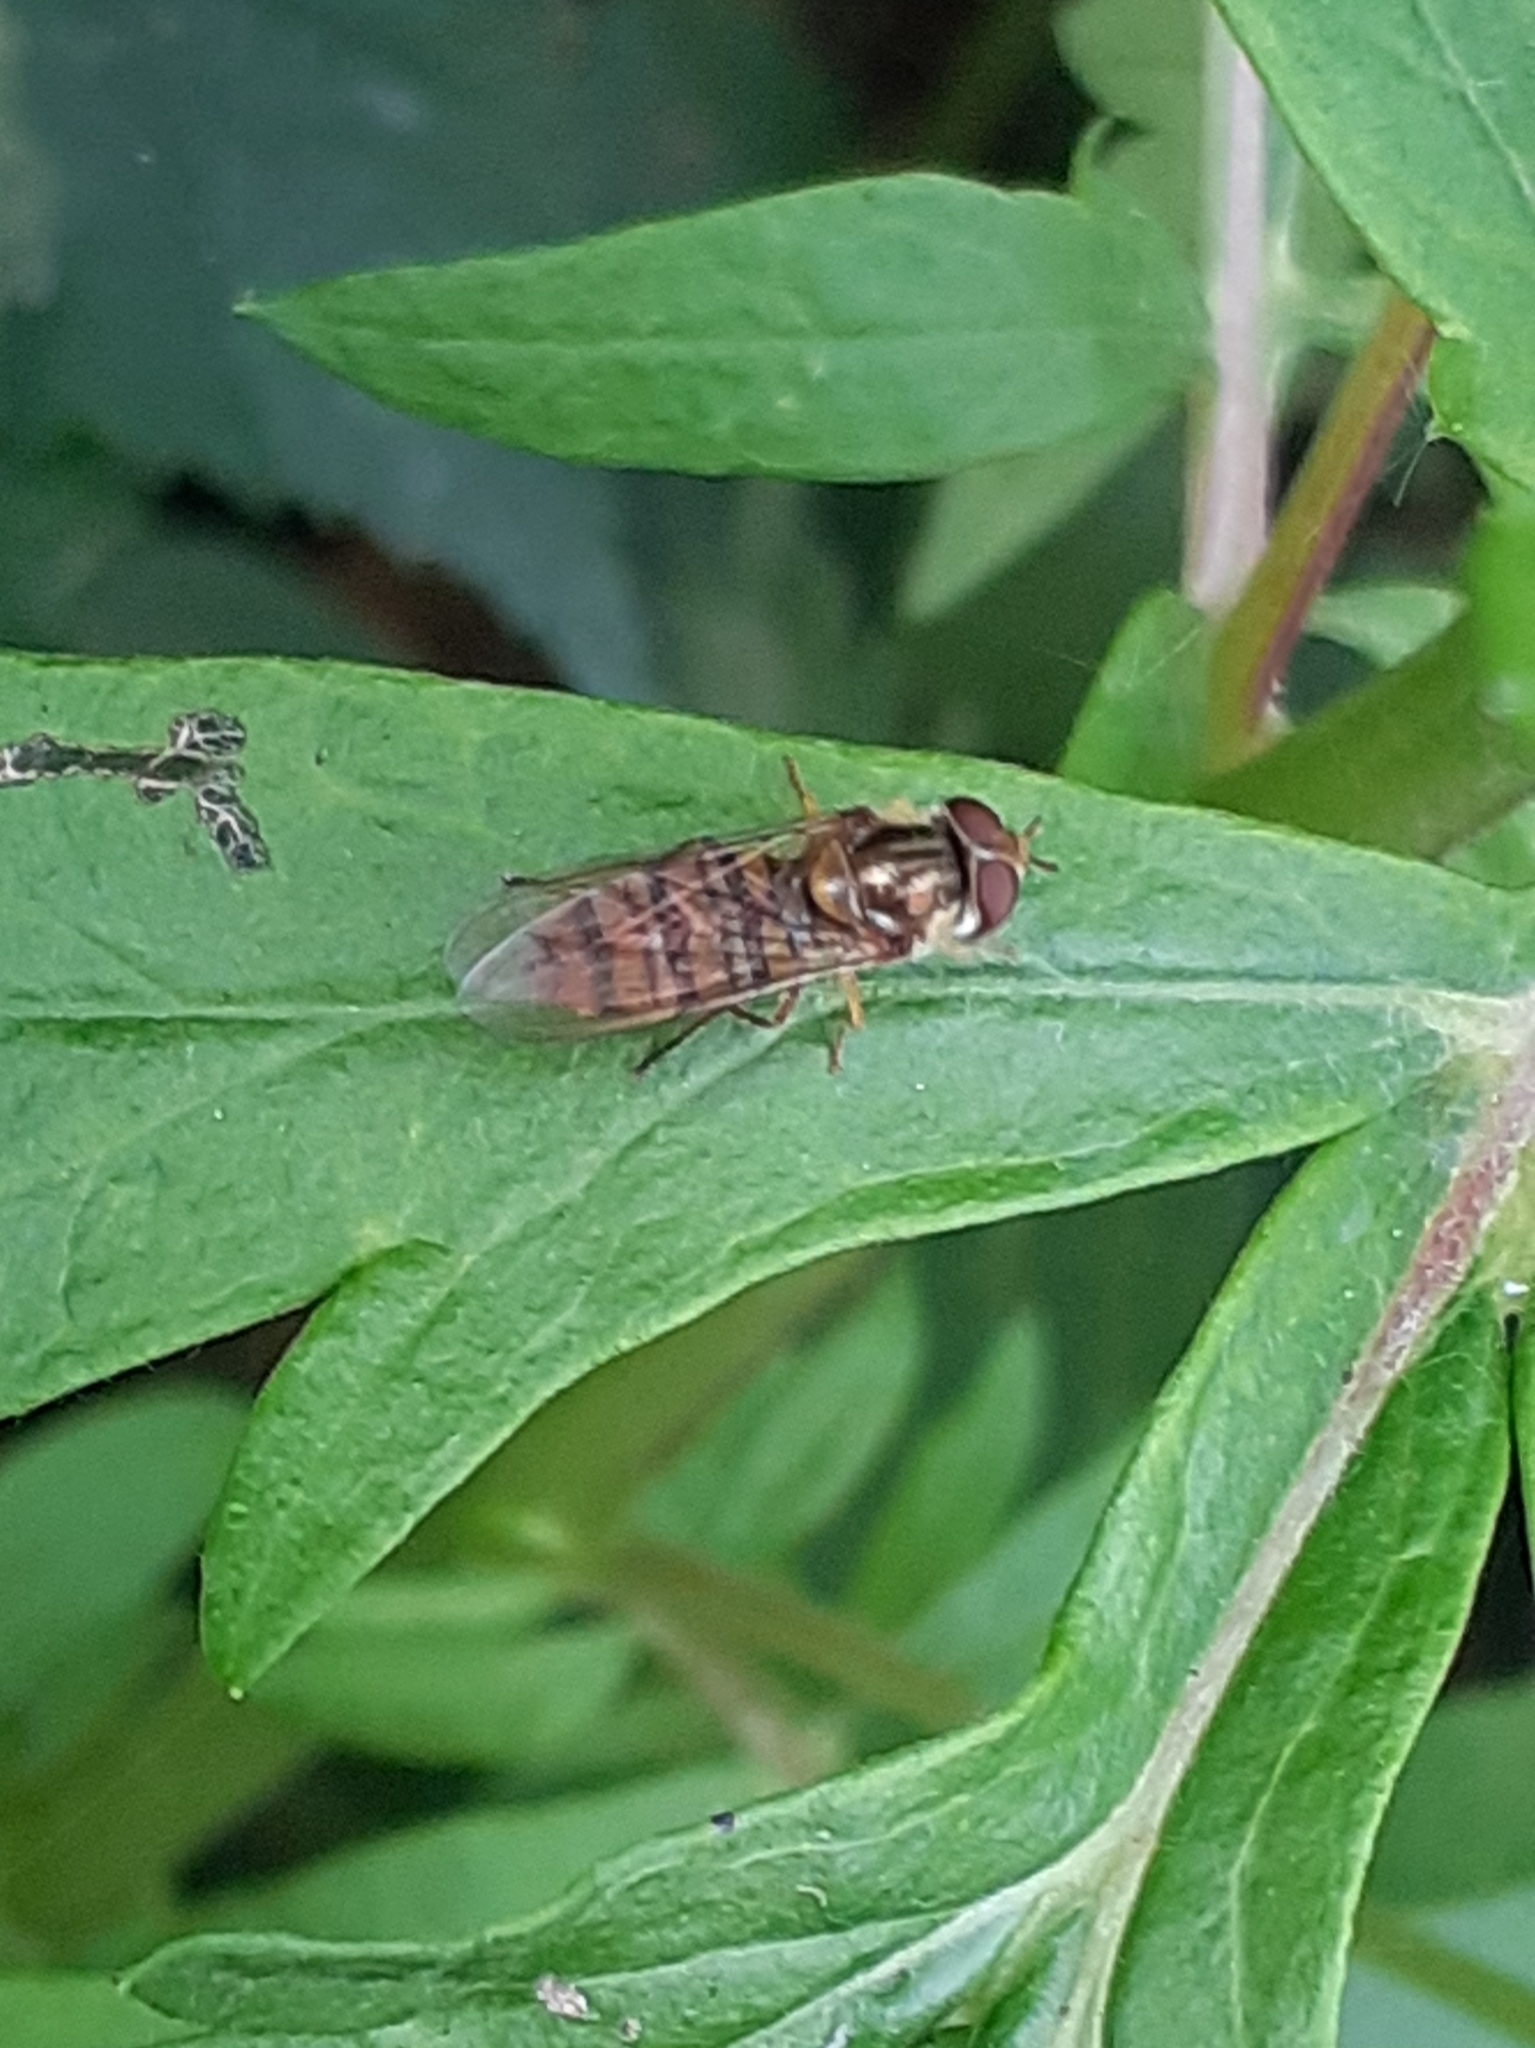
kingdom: Animalia
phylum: Arthropoda
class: Insecta
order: Diptera
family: Syrphidae
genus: Episyrphus
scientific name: Episyrphus balteatus
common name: Marmalade hoverfly
